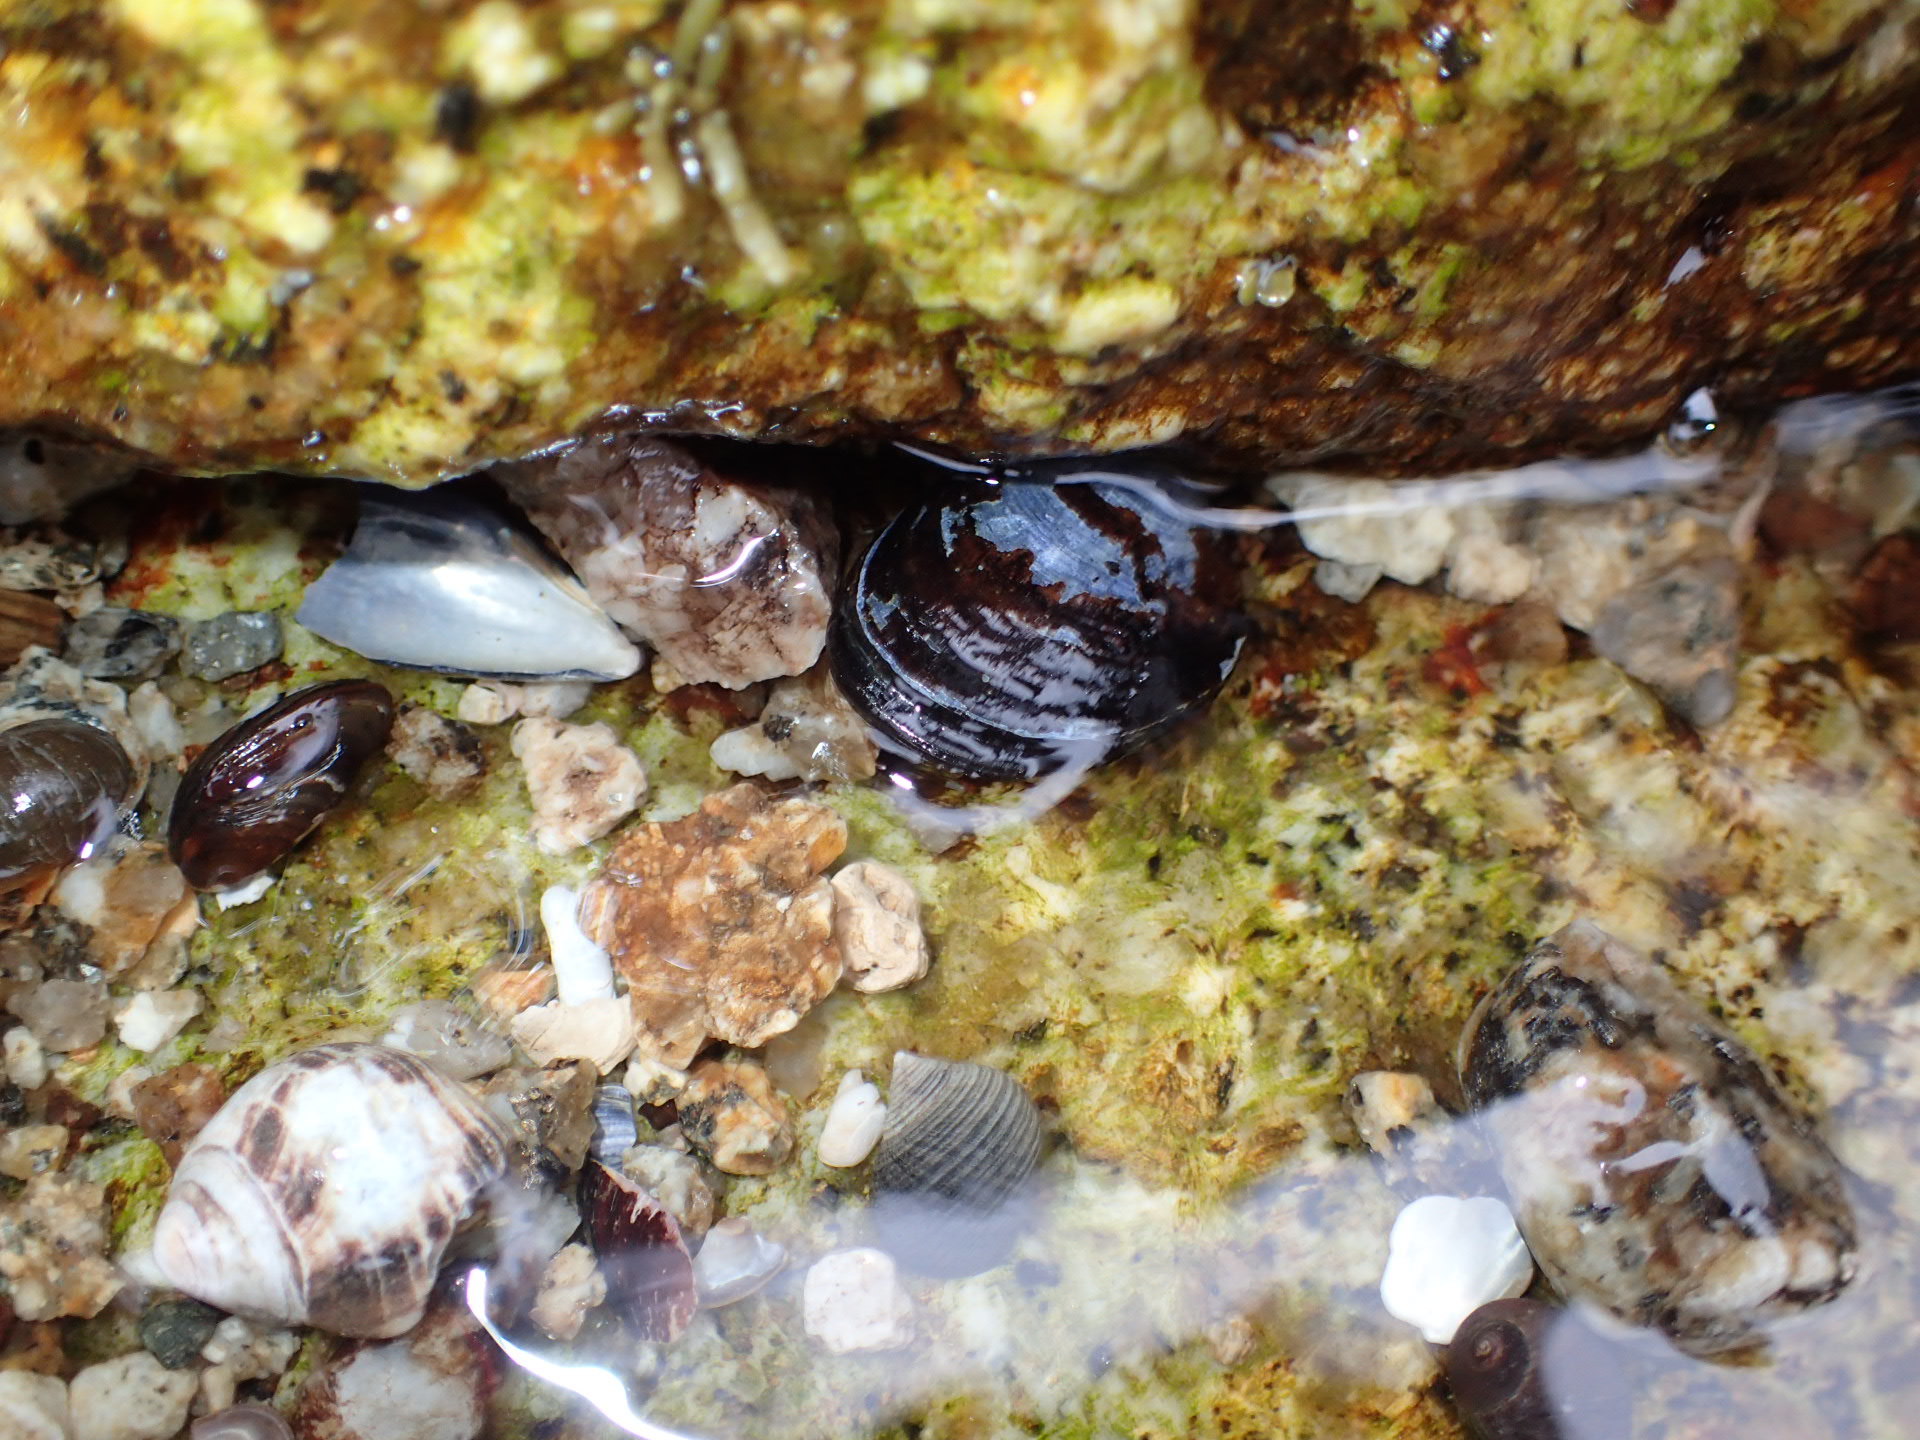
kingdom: Animalia
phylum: Mollusca
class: Bivalvia
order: Mytilida
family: Mytilidae
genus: Mytilus
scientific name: Mytilus
